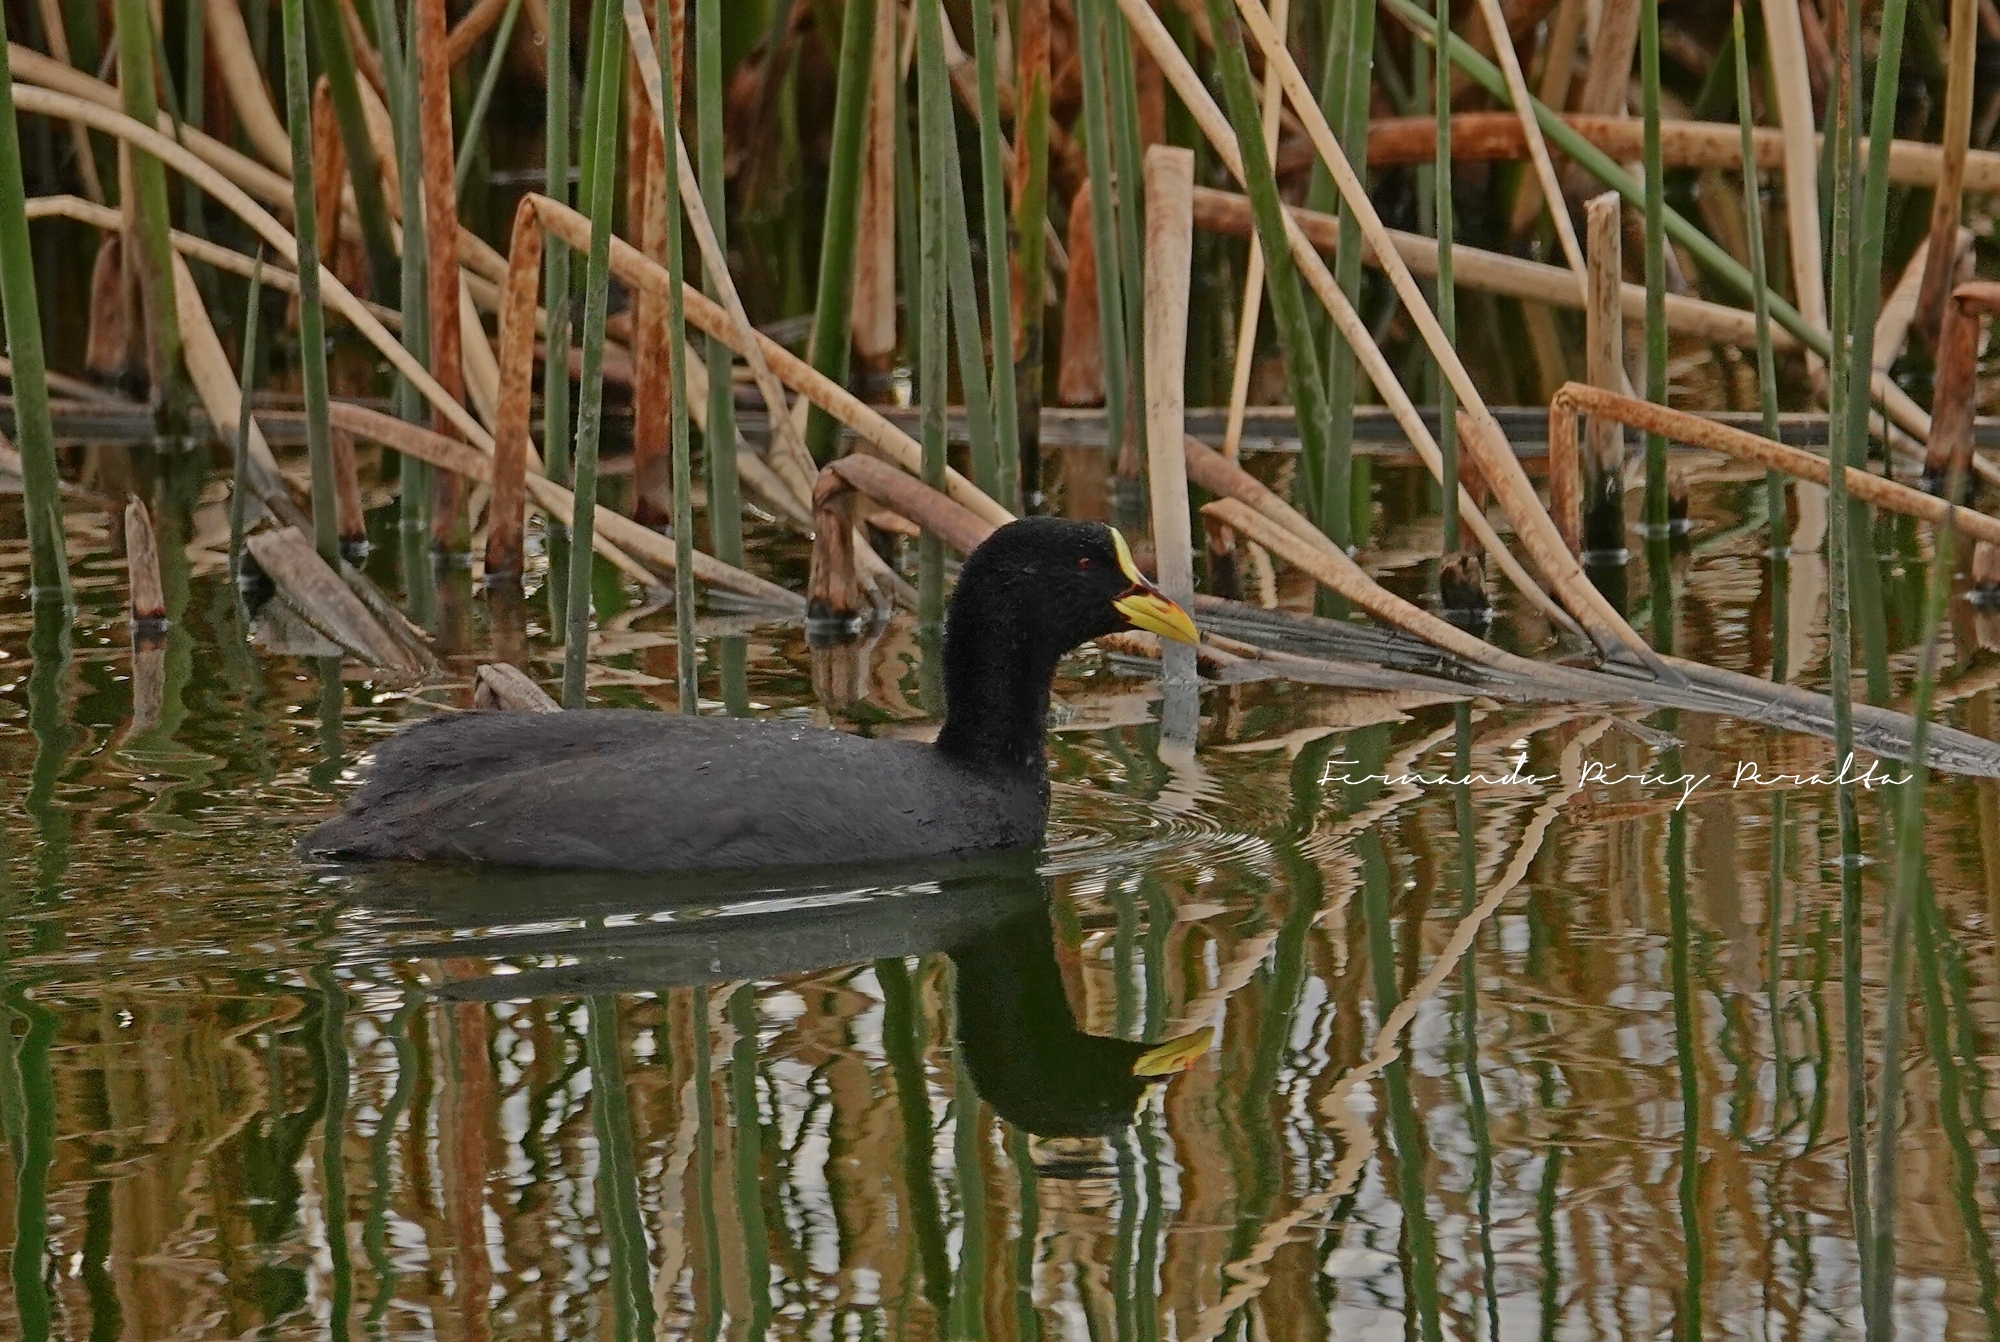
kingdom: Animalia
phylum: Chordata
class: Aves
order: Gruiformes
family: Rallidae
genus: Fulica
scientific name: Fulica armillata
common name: Red-gartered coot
